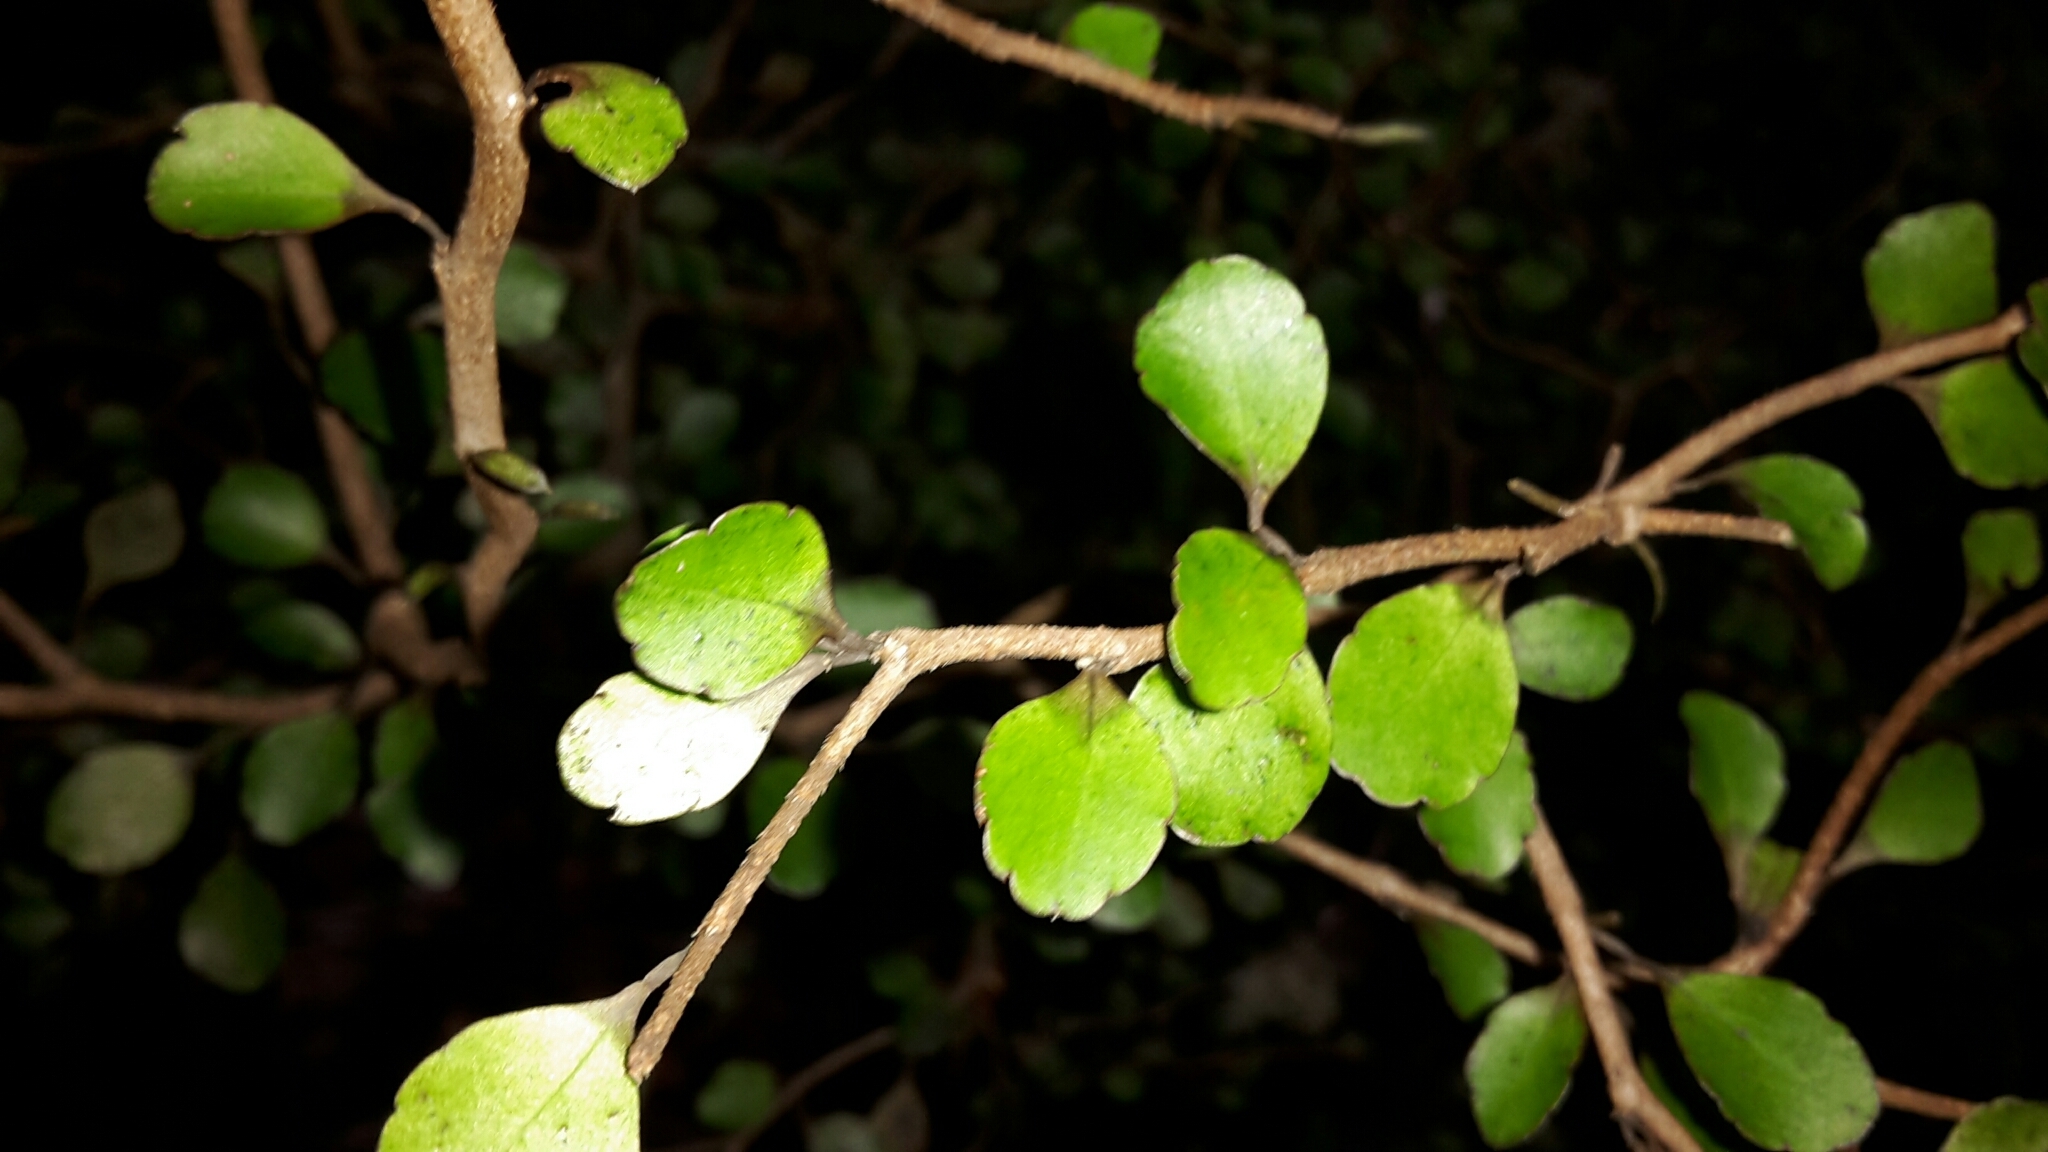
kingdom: Plantae
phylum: Tracheophyta
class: Magnoliopsida
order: Apiales
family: Araliaceae
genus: Raukaua
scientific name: Raukaua anomalus
